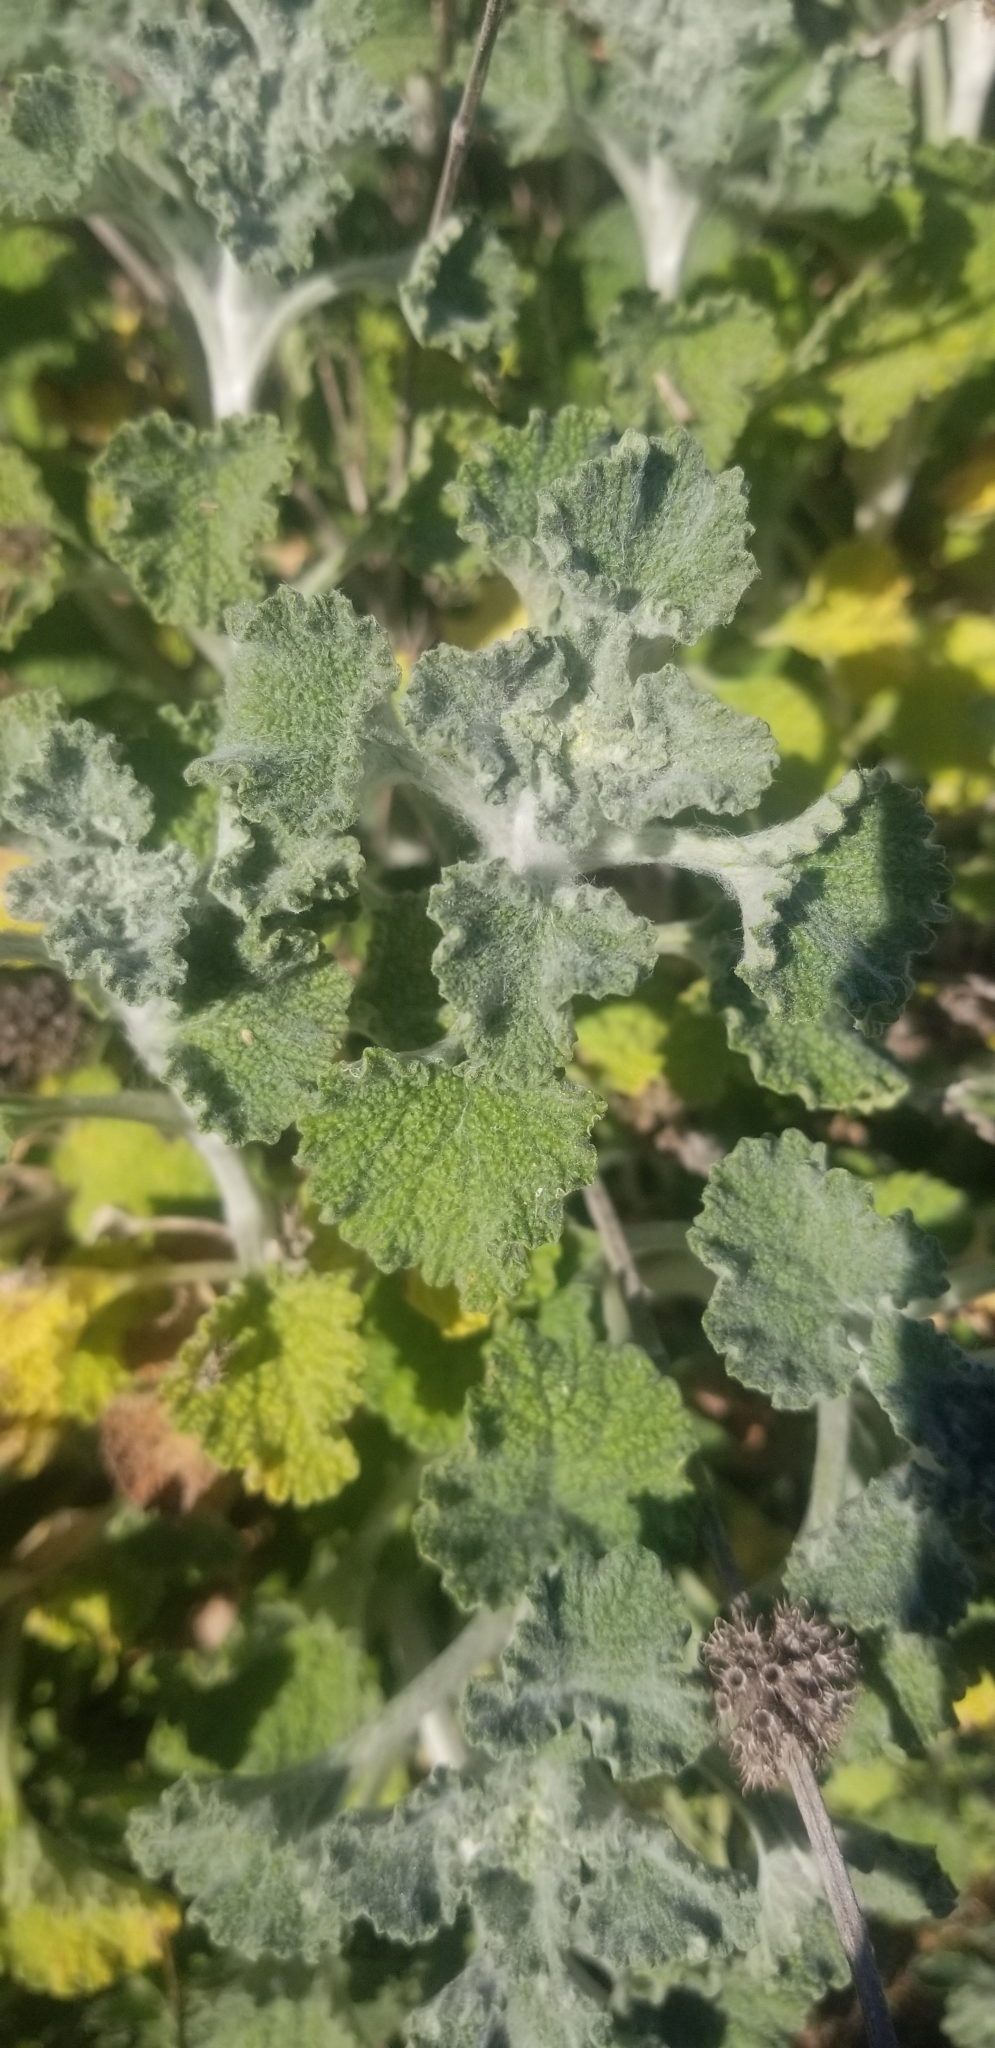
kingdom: Plantae
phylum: Tracheophyta
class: Magnoliopsida
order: Lamiales
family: Lamiaceae
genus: Marrubium
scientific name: Marrubium vulgare
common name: Horehound
